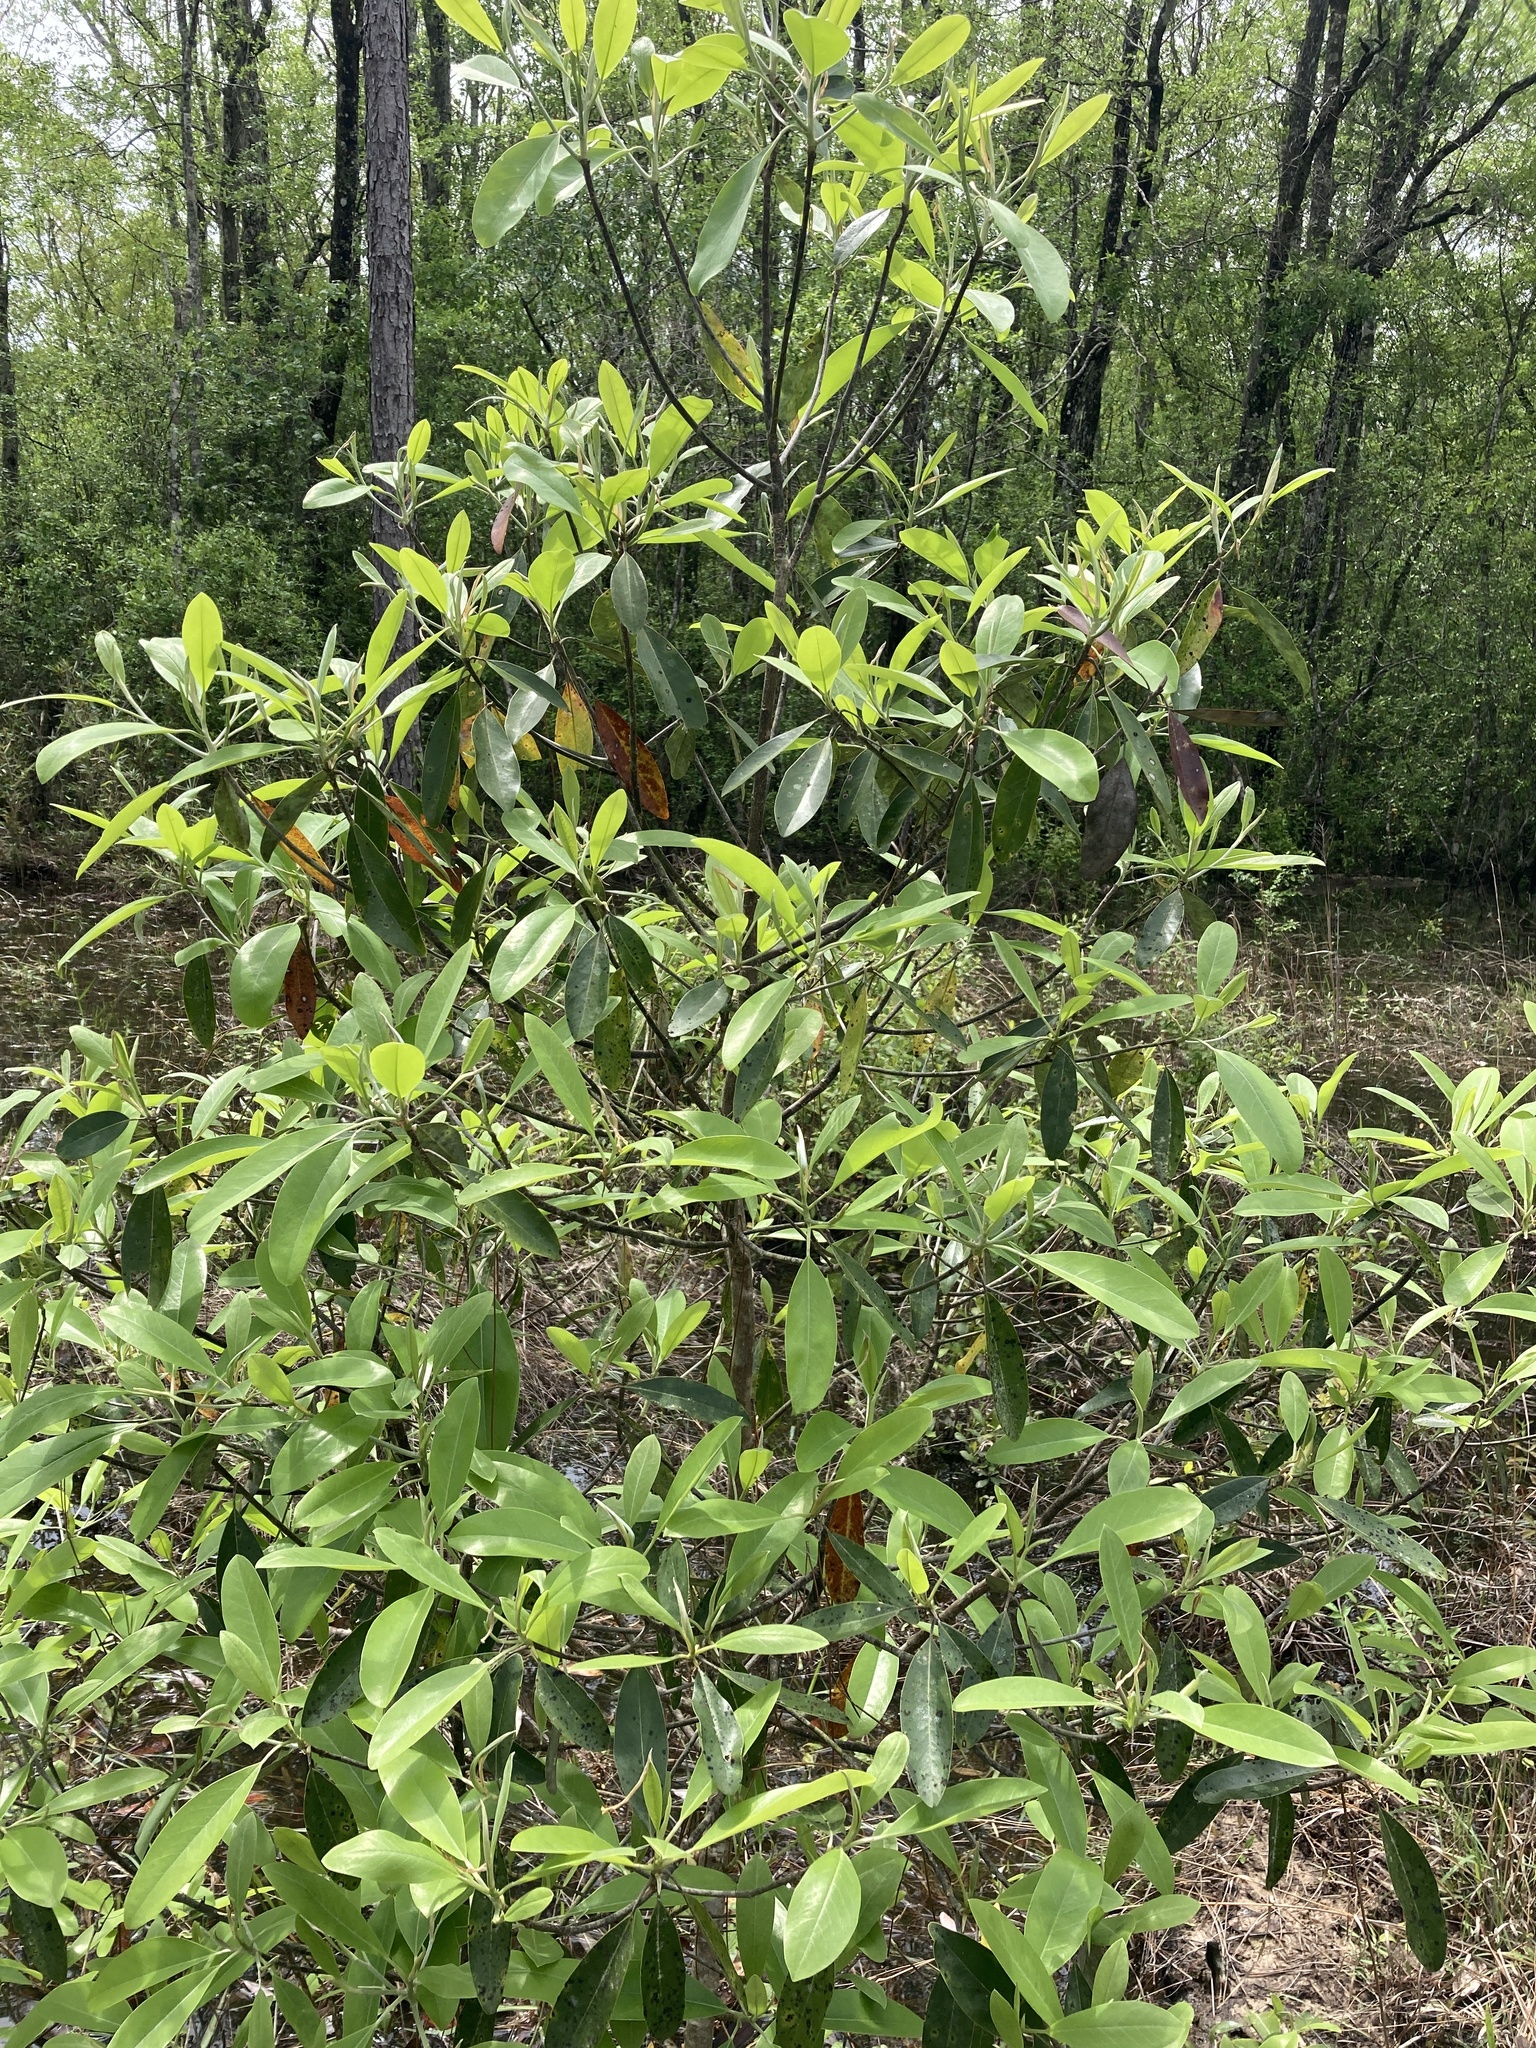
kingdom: Plantae
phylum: Tracheophyta
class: Magnoliopsida
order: Magnoliales
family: Magnoliaceae
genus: Magnolia
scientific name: Magnolia virginiana
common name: Swamp bay
